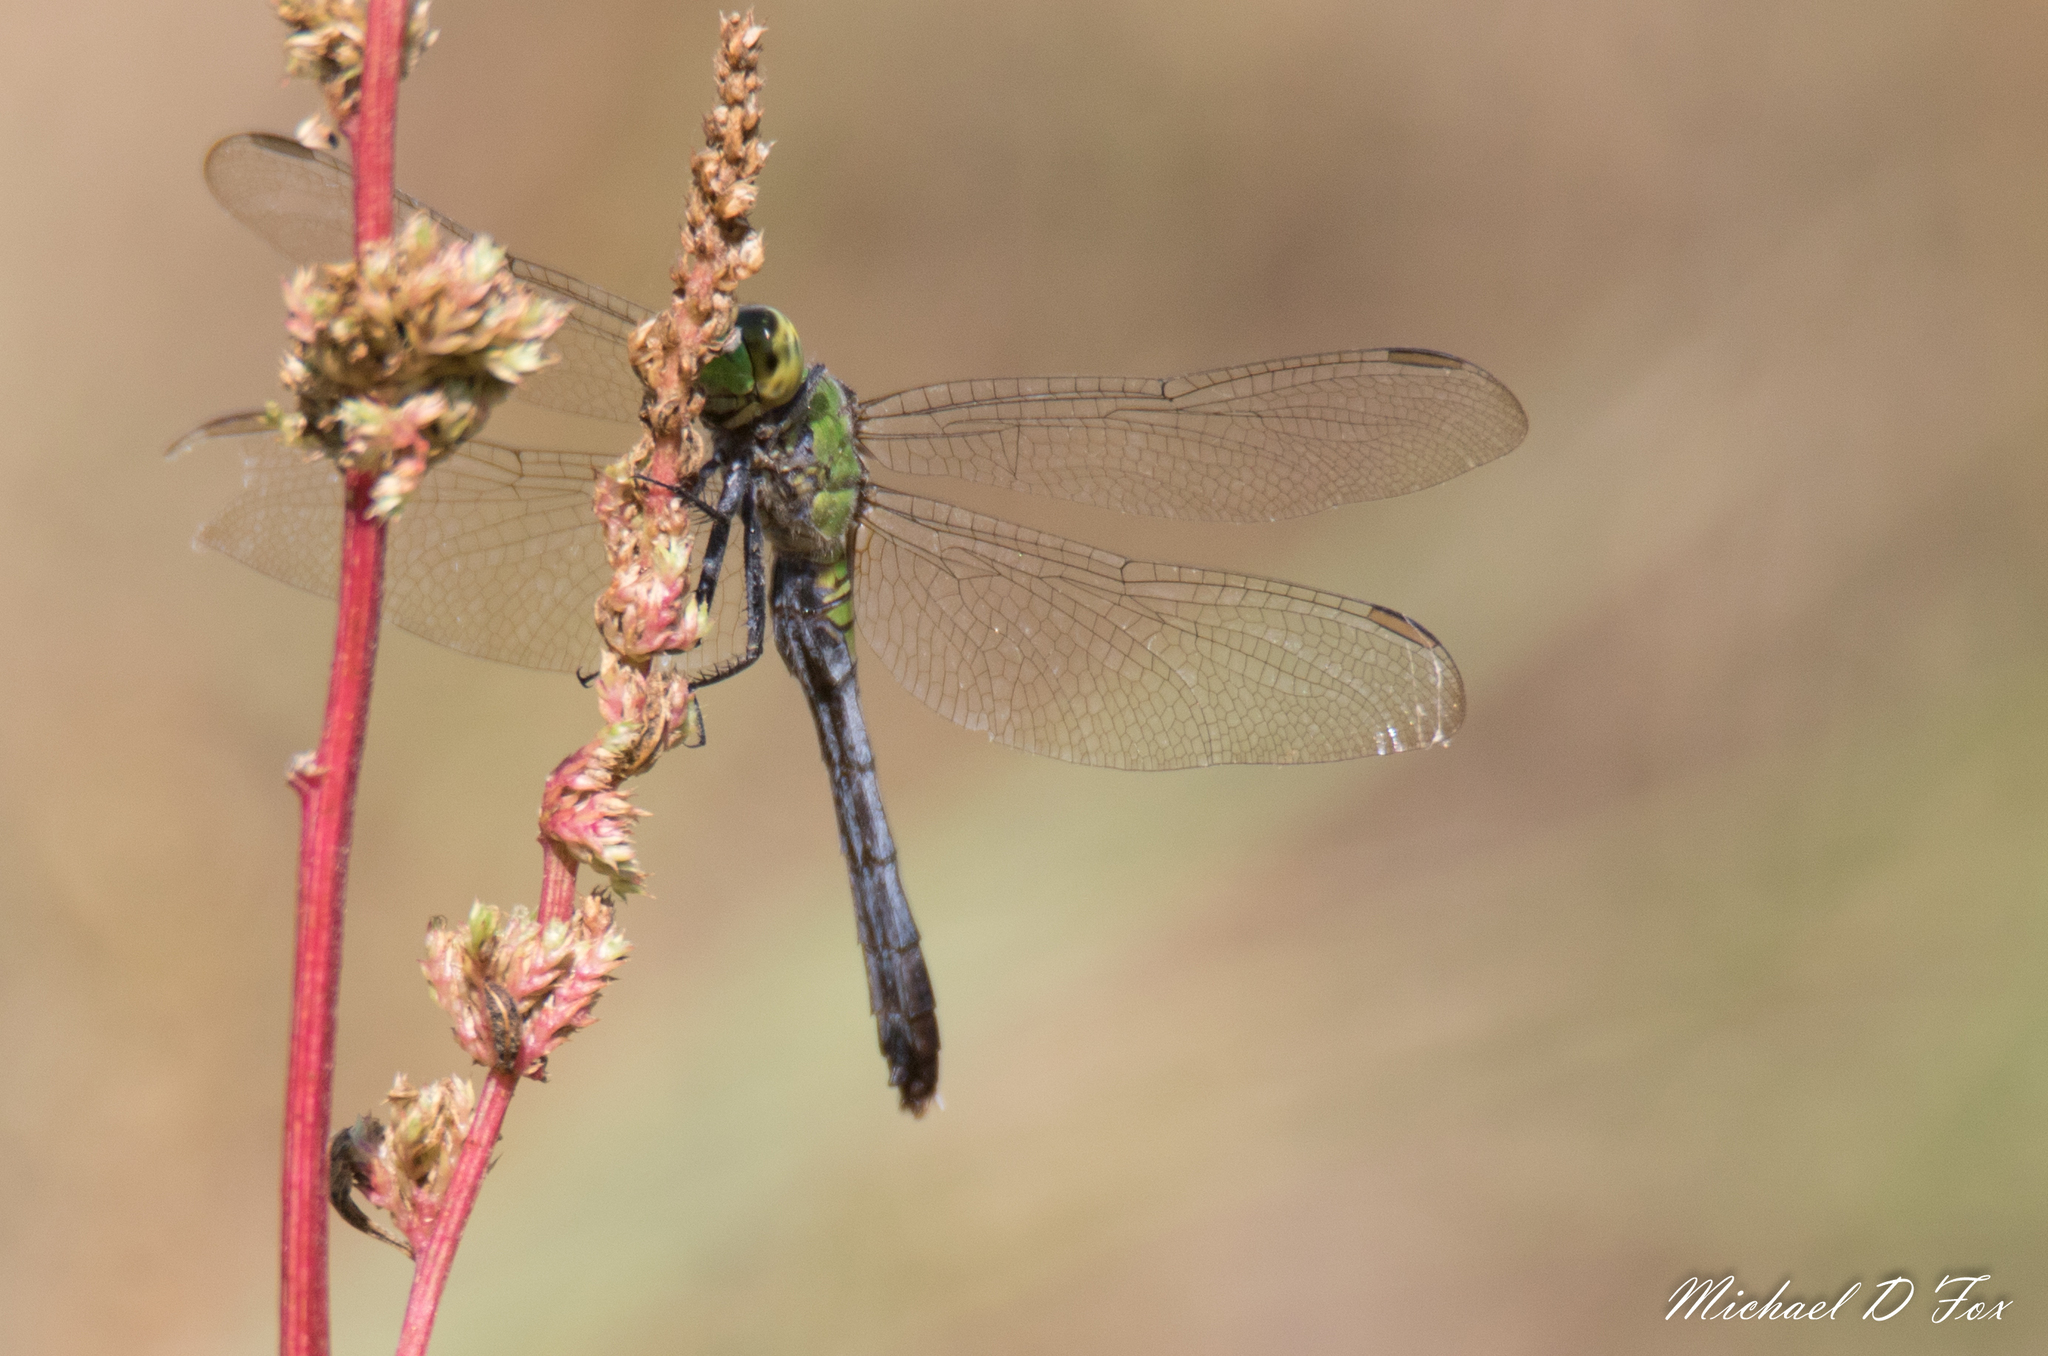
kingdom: Animalia
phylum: Arthropoda
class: Insecta
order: Odonata
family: Libellulidae
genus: Erythemis
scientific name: Erythemis simplicicollis
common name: Eastern pondhawk
